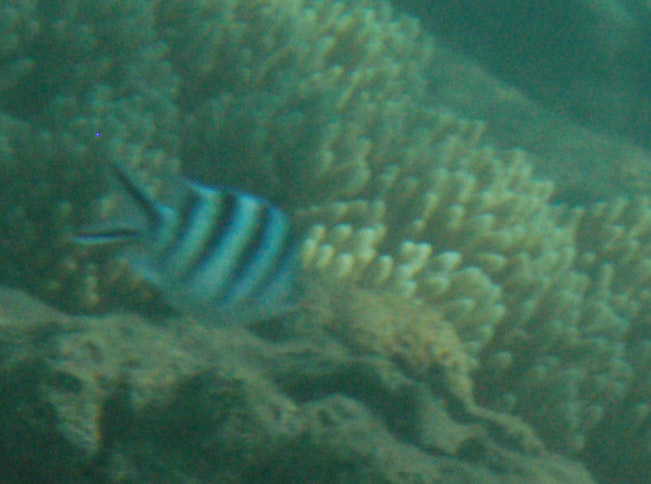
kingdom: Animalia
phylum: Chordata
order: Perciformes
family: Pomacentridae
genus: Abudefduf
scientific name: Abudefduf sexfasciatus
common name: Scissortail sergeant
